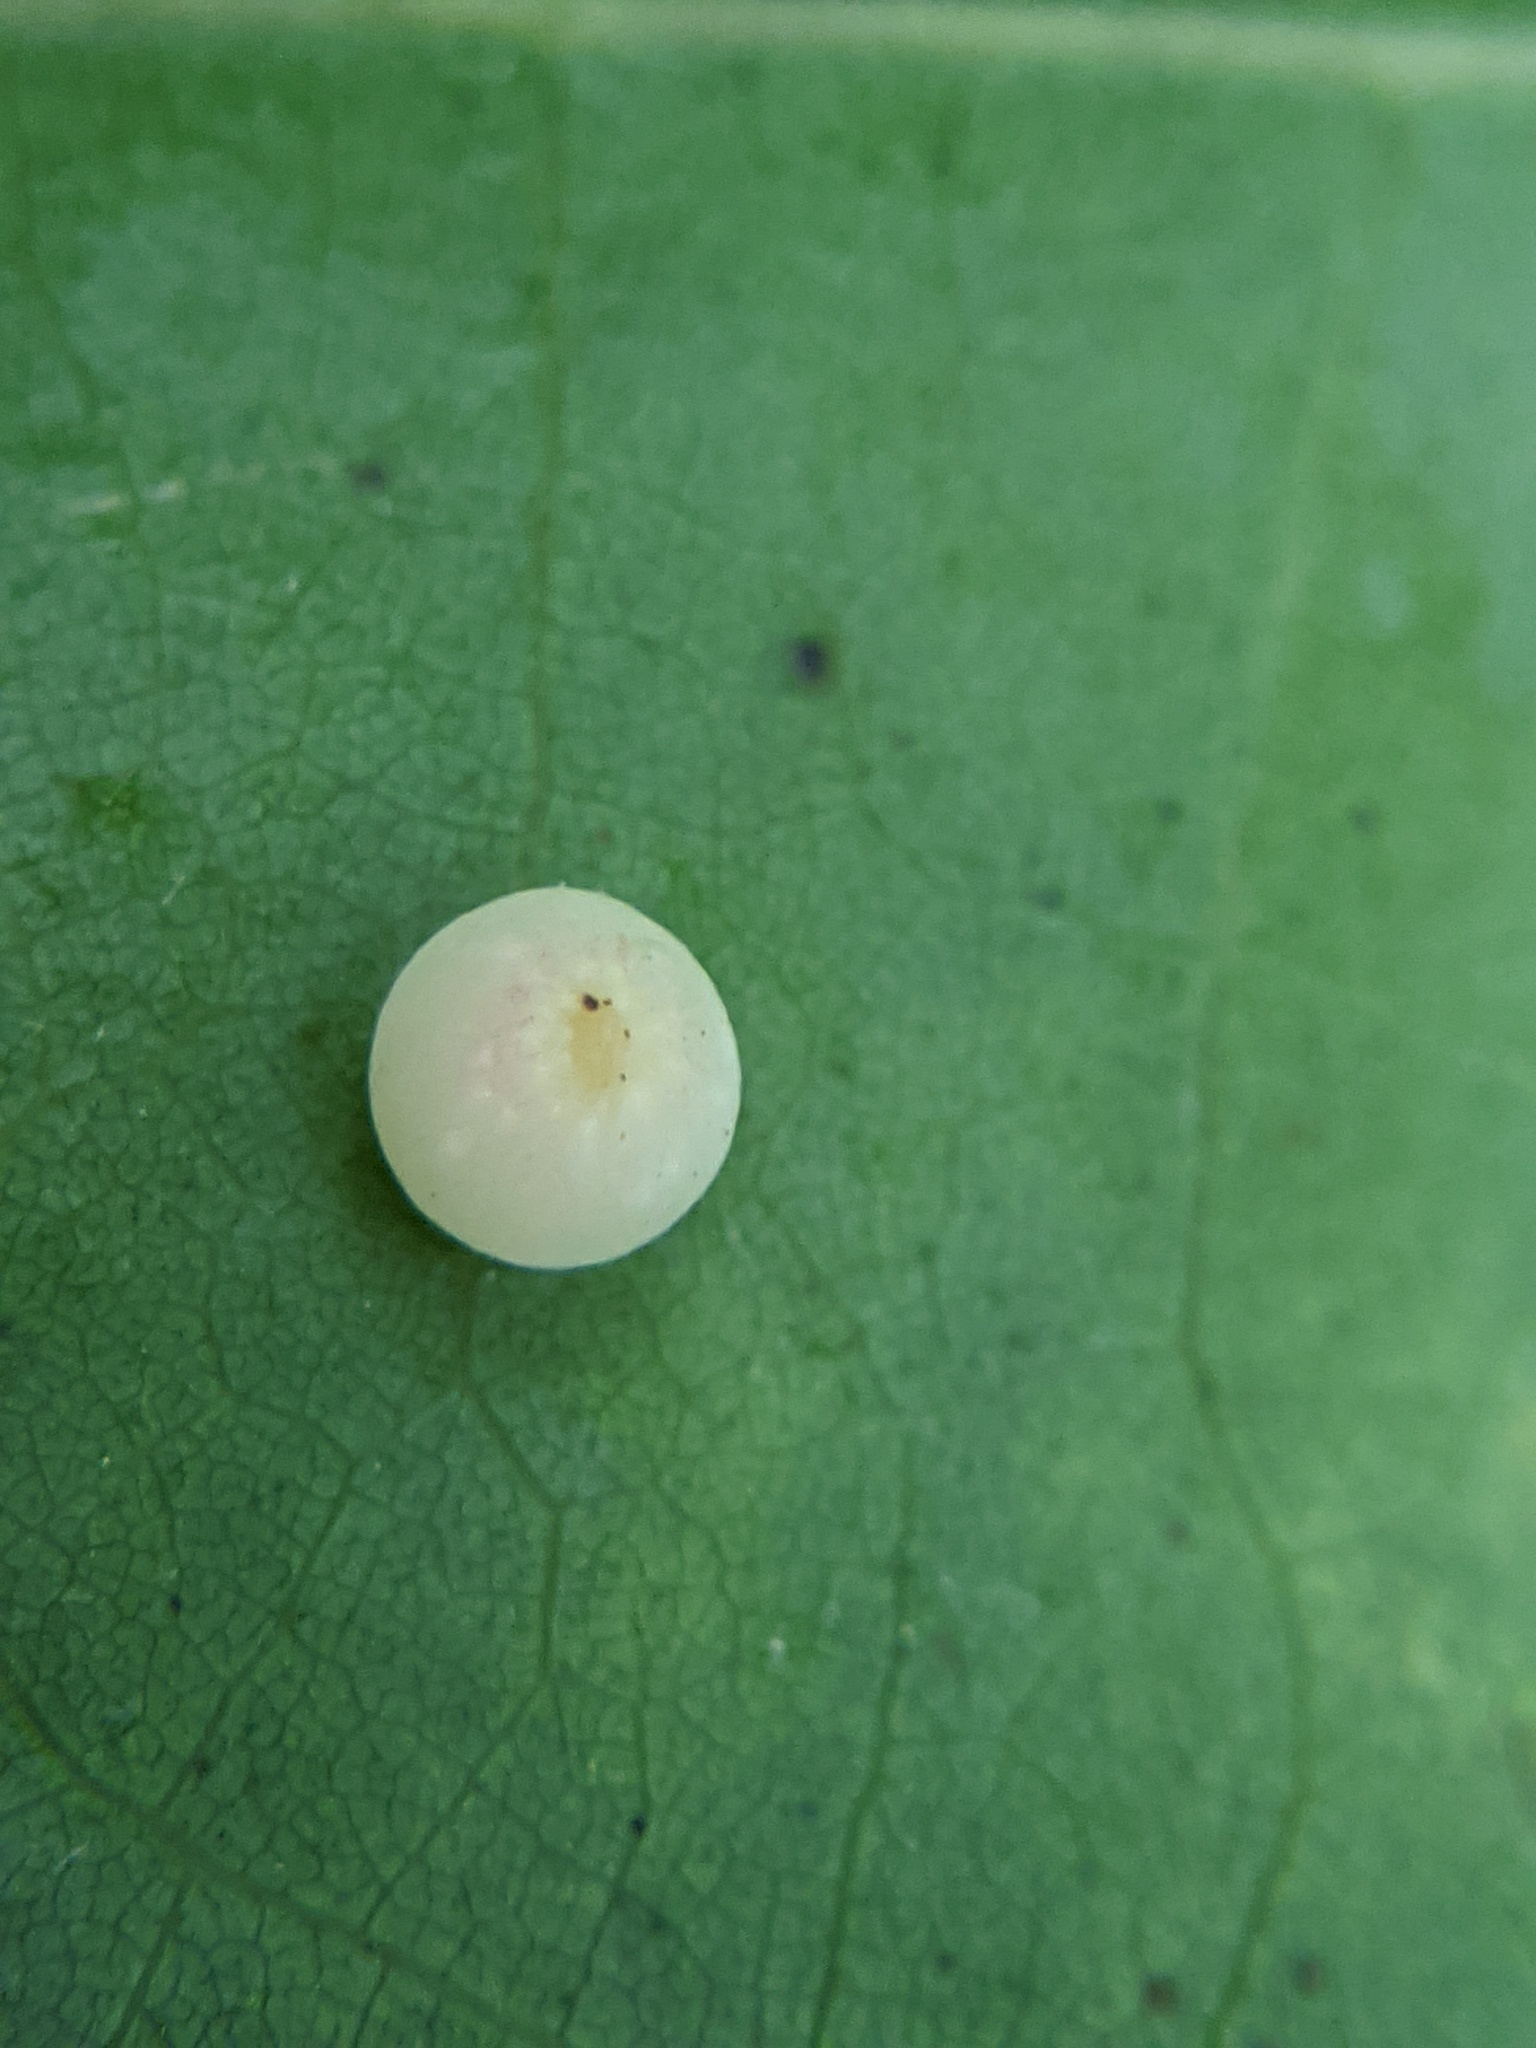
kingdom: Animalia
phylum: Arthropoda
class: Insecta
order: Hymenoptera
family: Cynipidae
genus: Zopheroteras
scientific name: Zopheroteras
